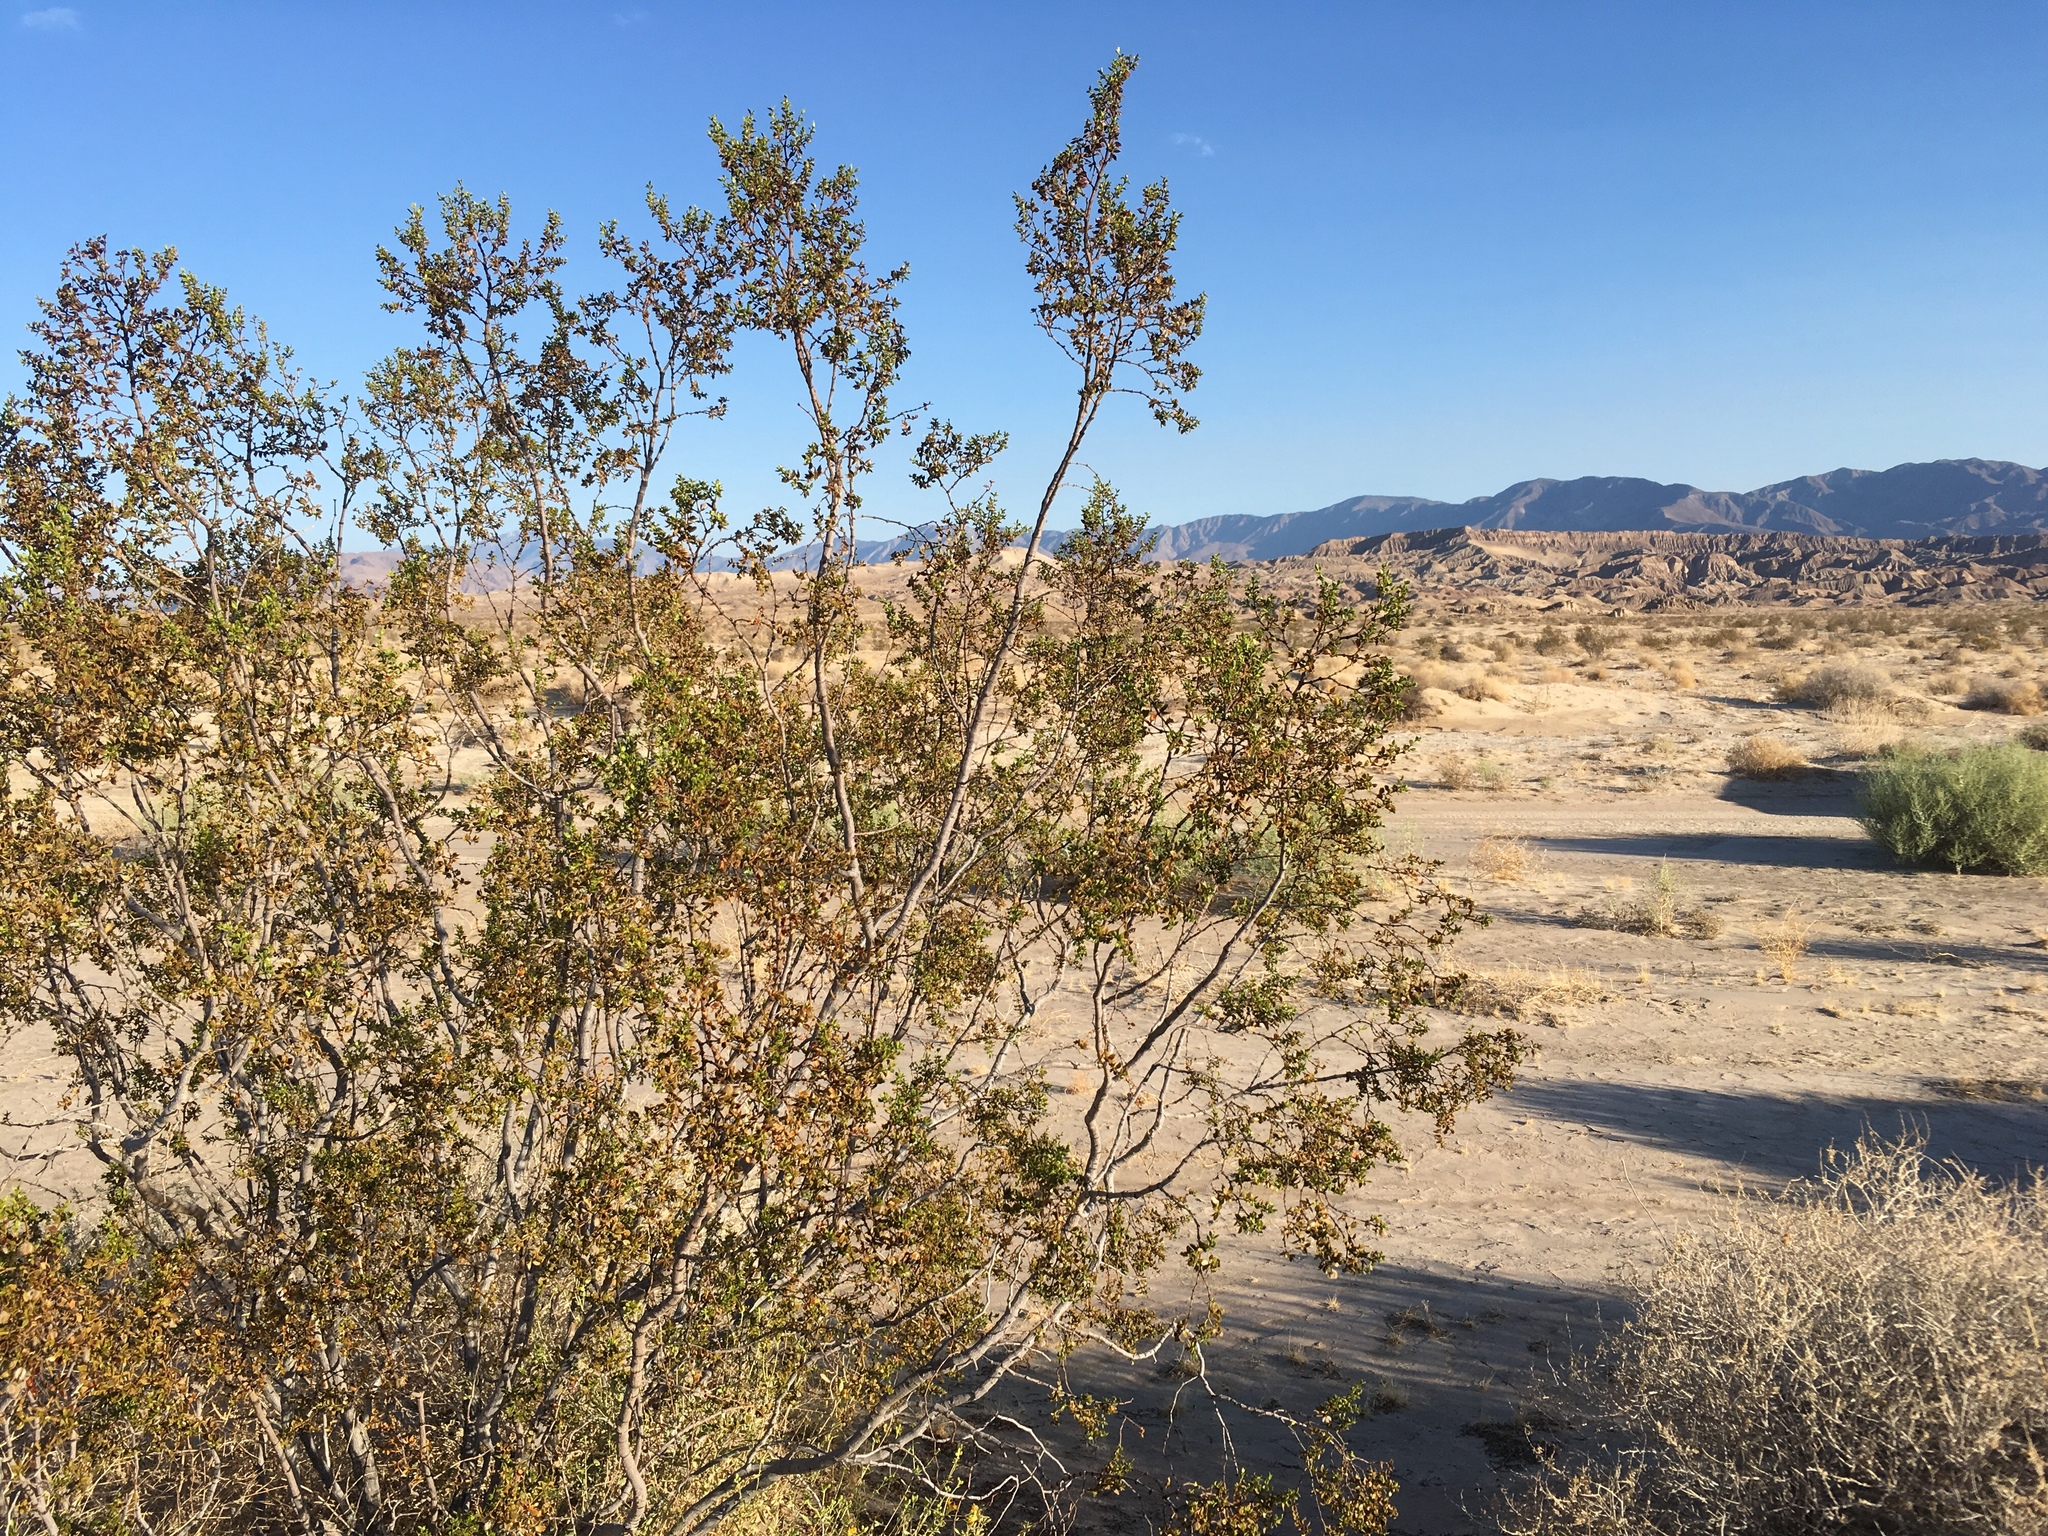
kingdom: Plantae
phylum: Tracheophyta
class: Magnoliopsida
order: Zygophyllales
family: Zygophyllaceae
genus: Larrea
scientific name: Larrea tridentata
